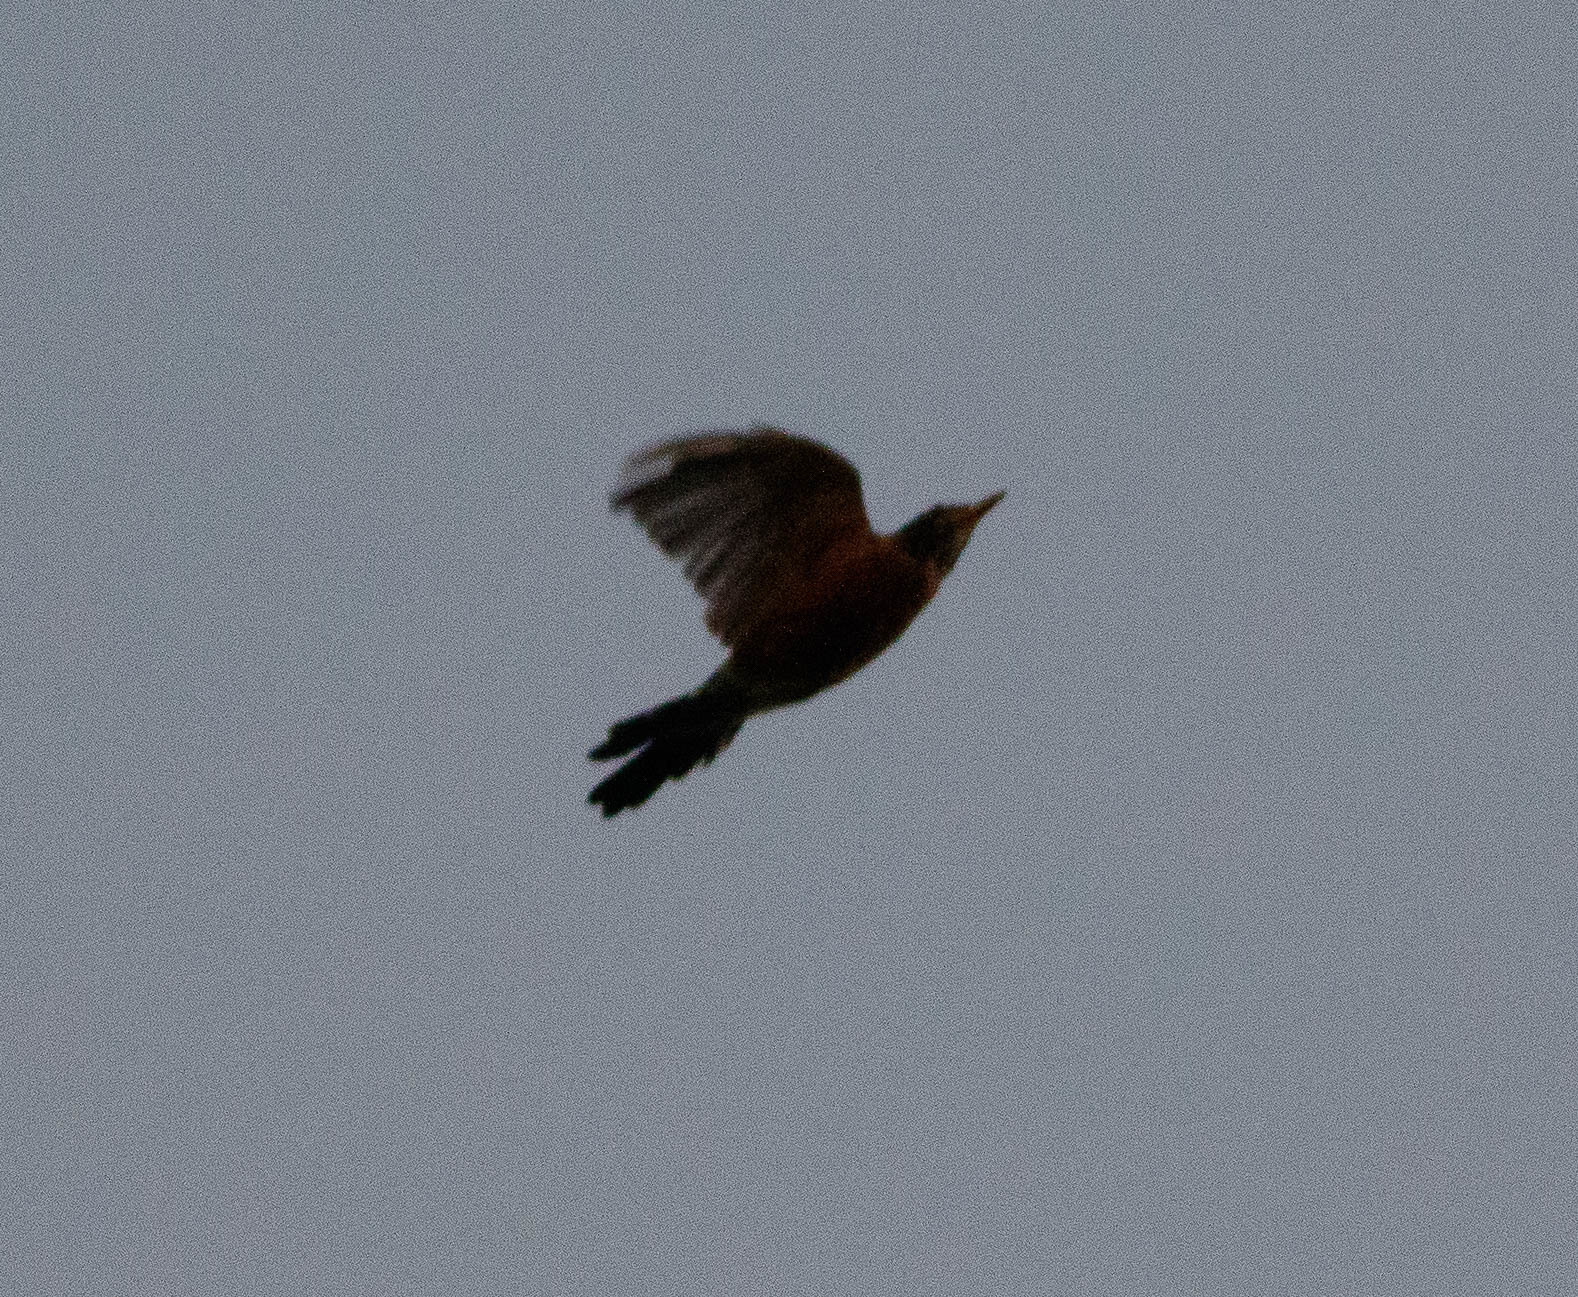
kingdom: Animalia
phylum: Chordata
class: Aves
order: Passeriformes
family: Turdidae
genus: Turdus
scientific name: Turdus migratorius
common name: American robin
